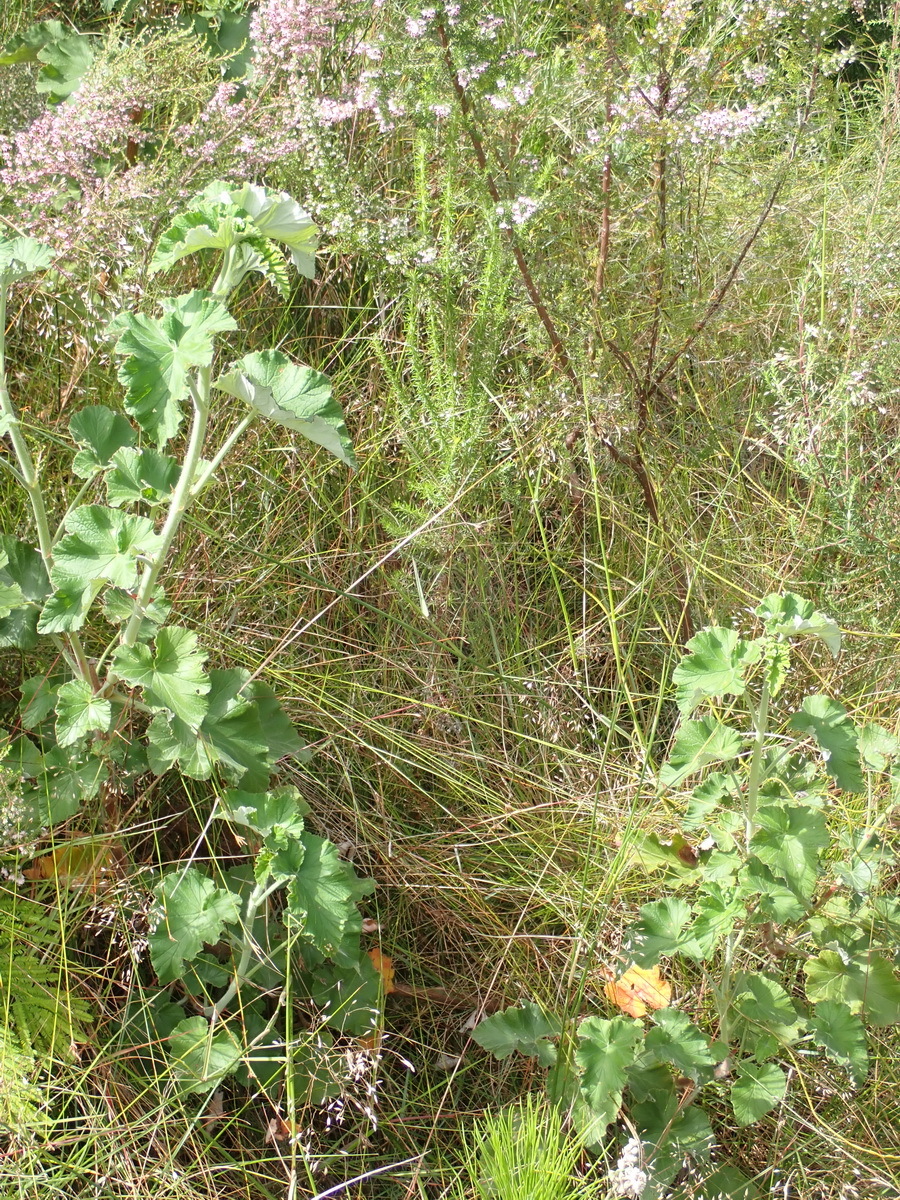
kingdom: Plantae
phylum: Tracheophyta
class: Magnoliopsida
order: Geraniales
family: Geraniaceae
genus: Pelargonium
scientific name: Pelargonium cordifolium
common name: Heart-leaf pelargonium
